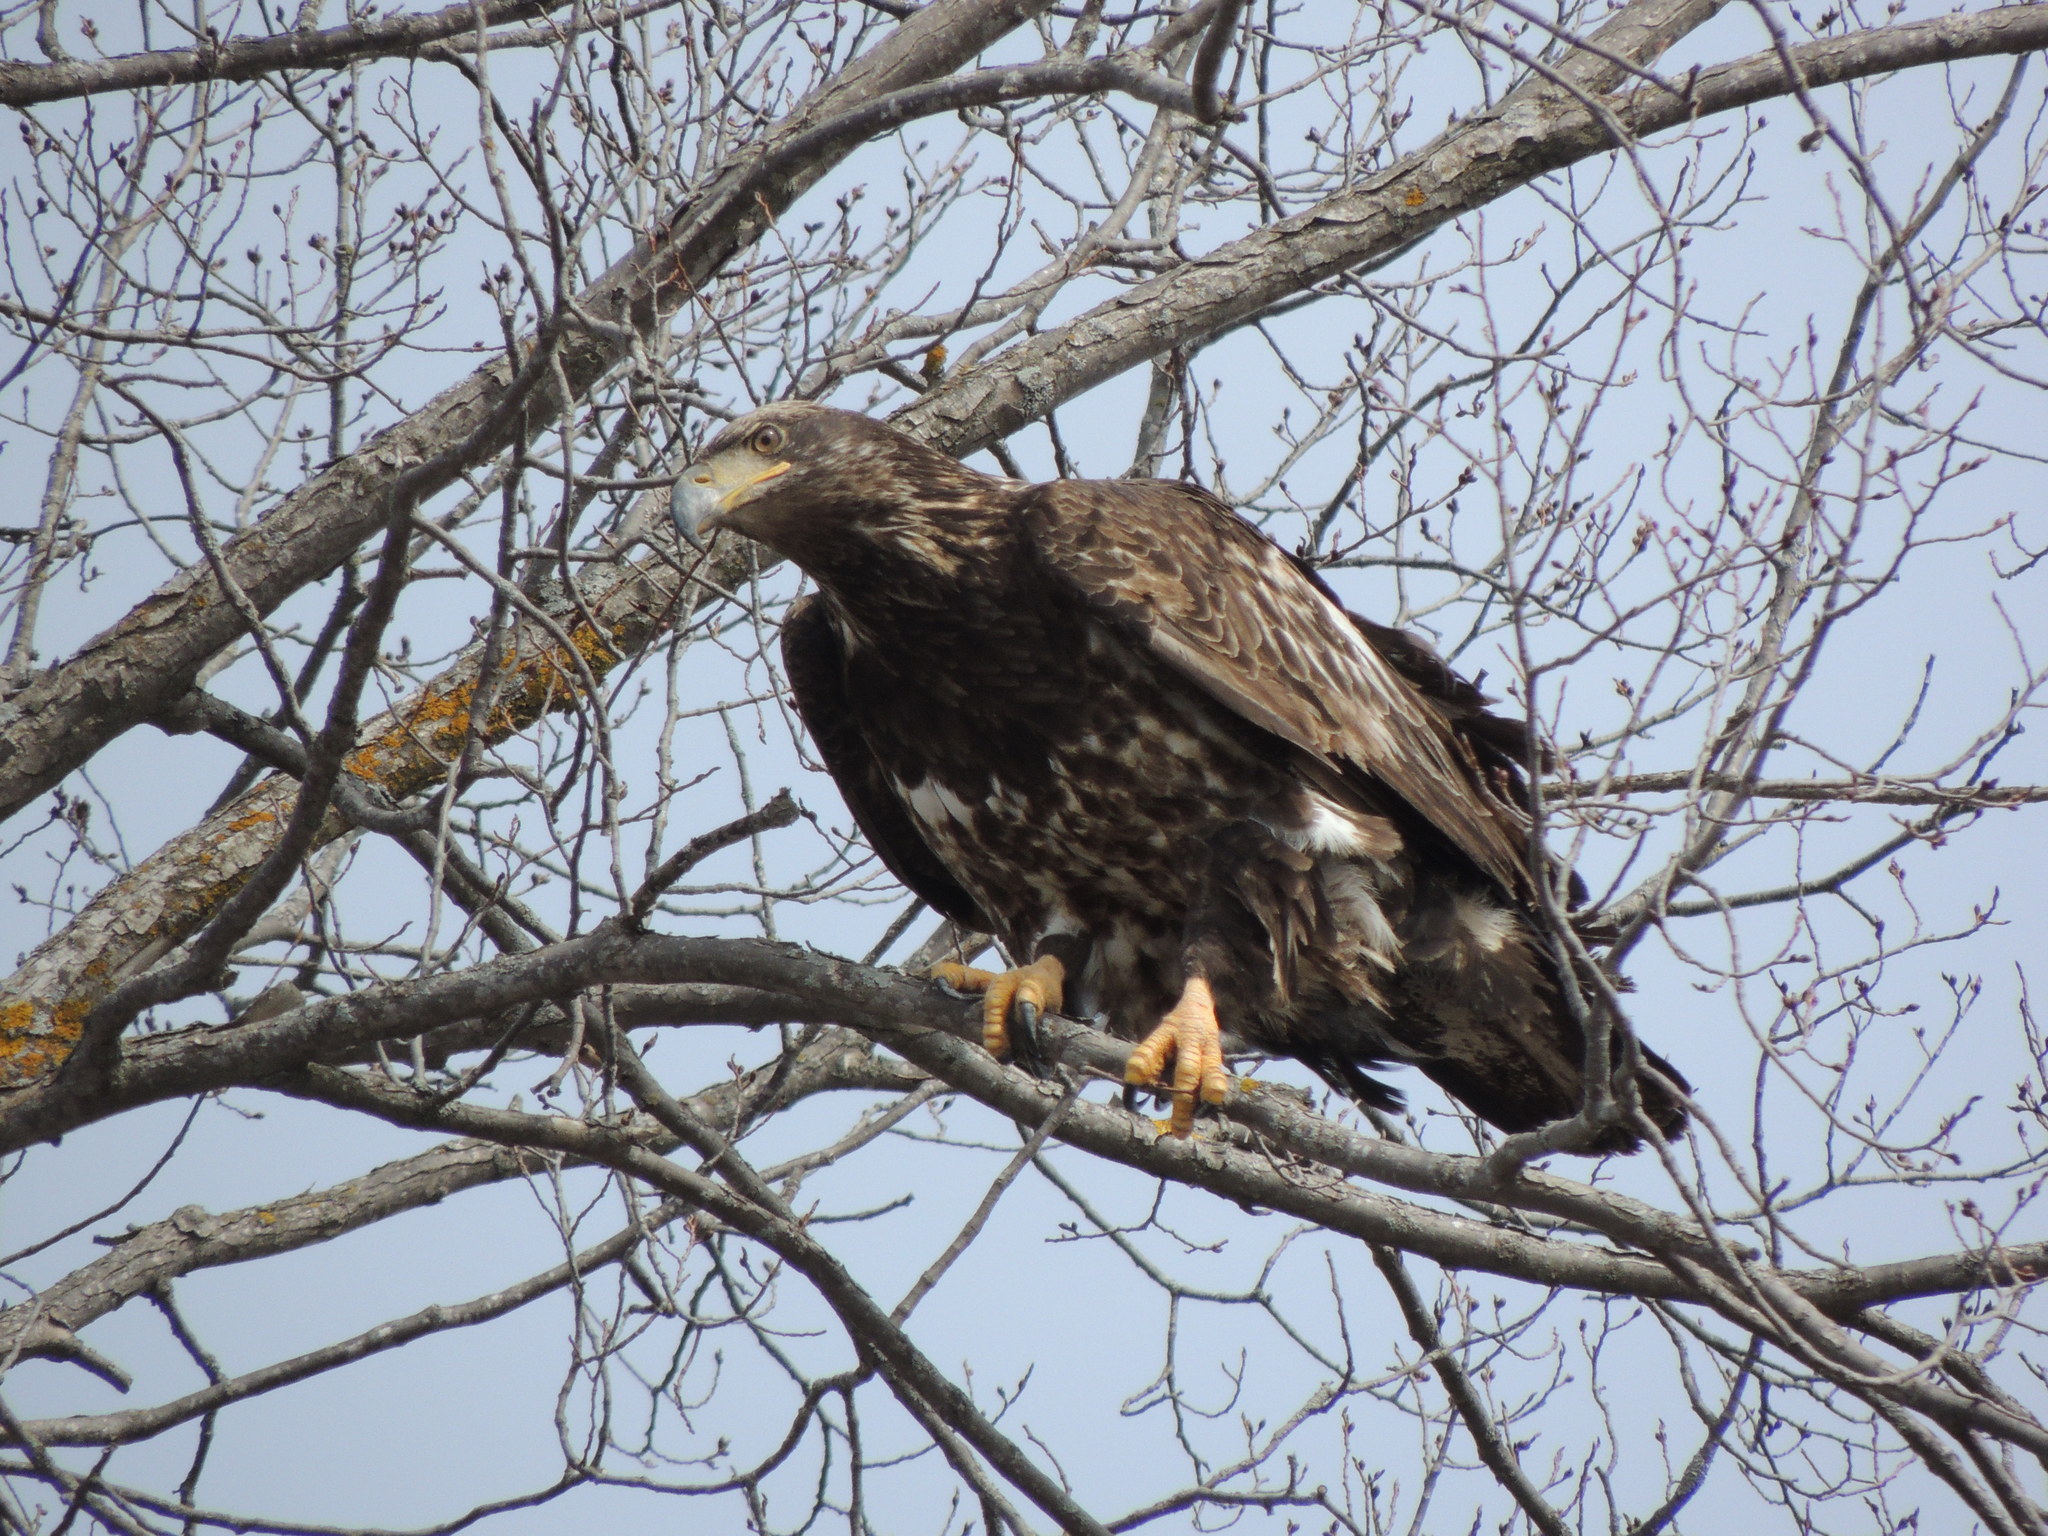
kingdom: Animalia
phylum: Chordata
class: Aves
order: Accipitriformes
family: Accipitridae
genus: Haliaeetus
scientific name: Haliaeetus leucocephalus
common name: Bald eagle
